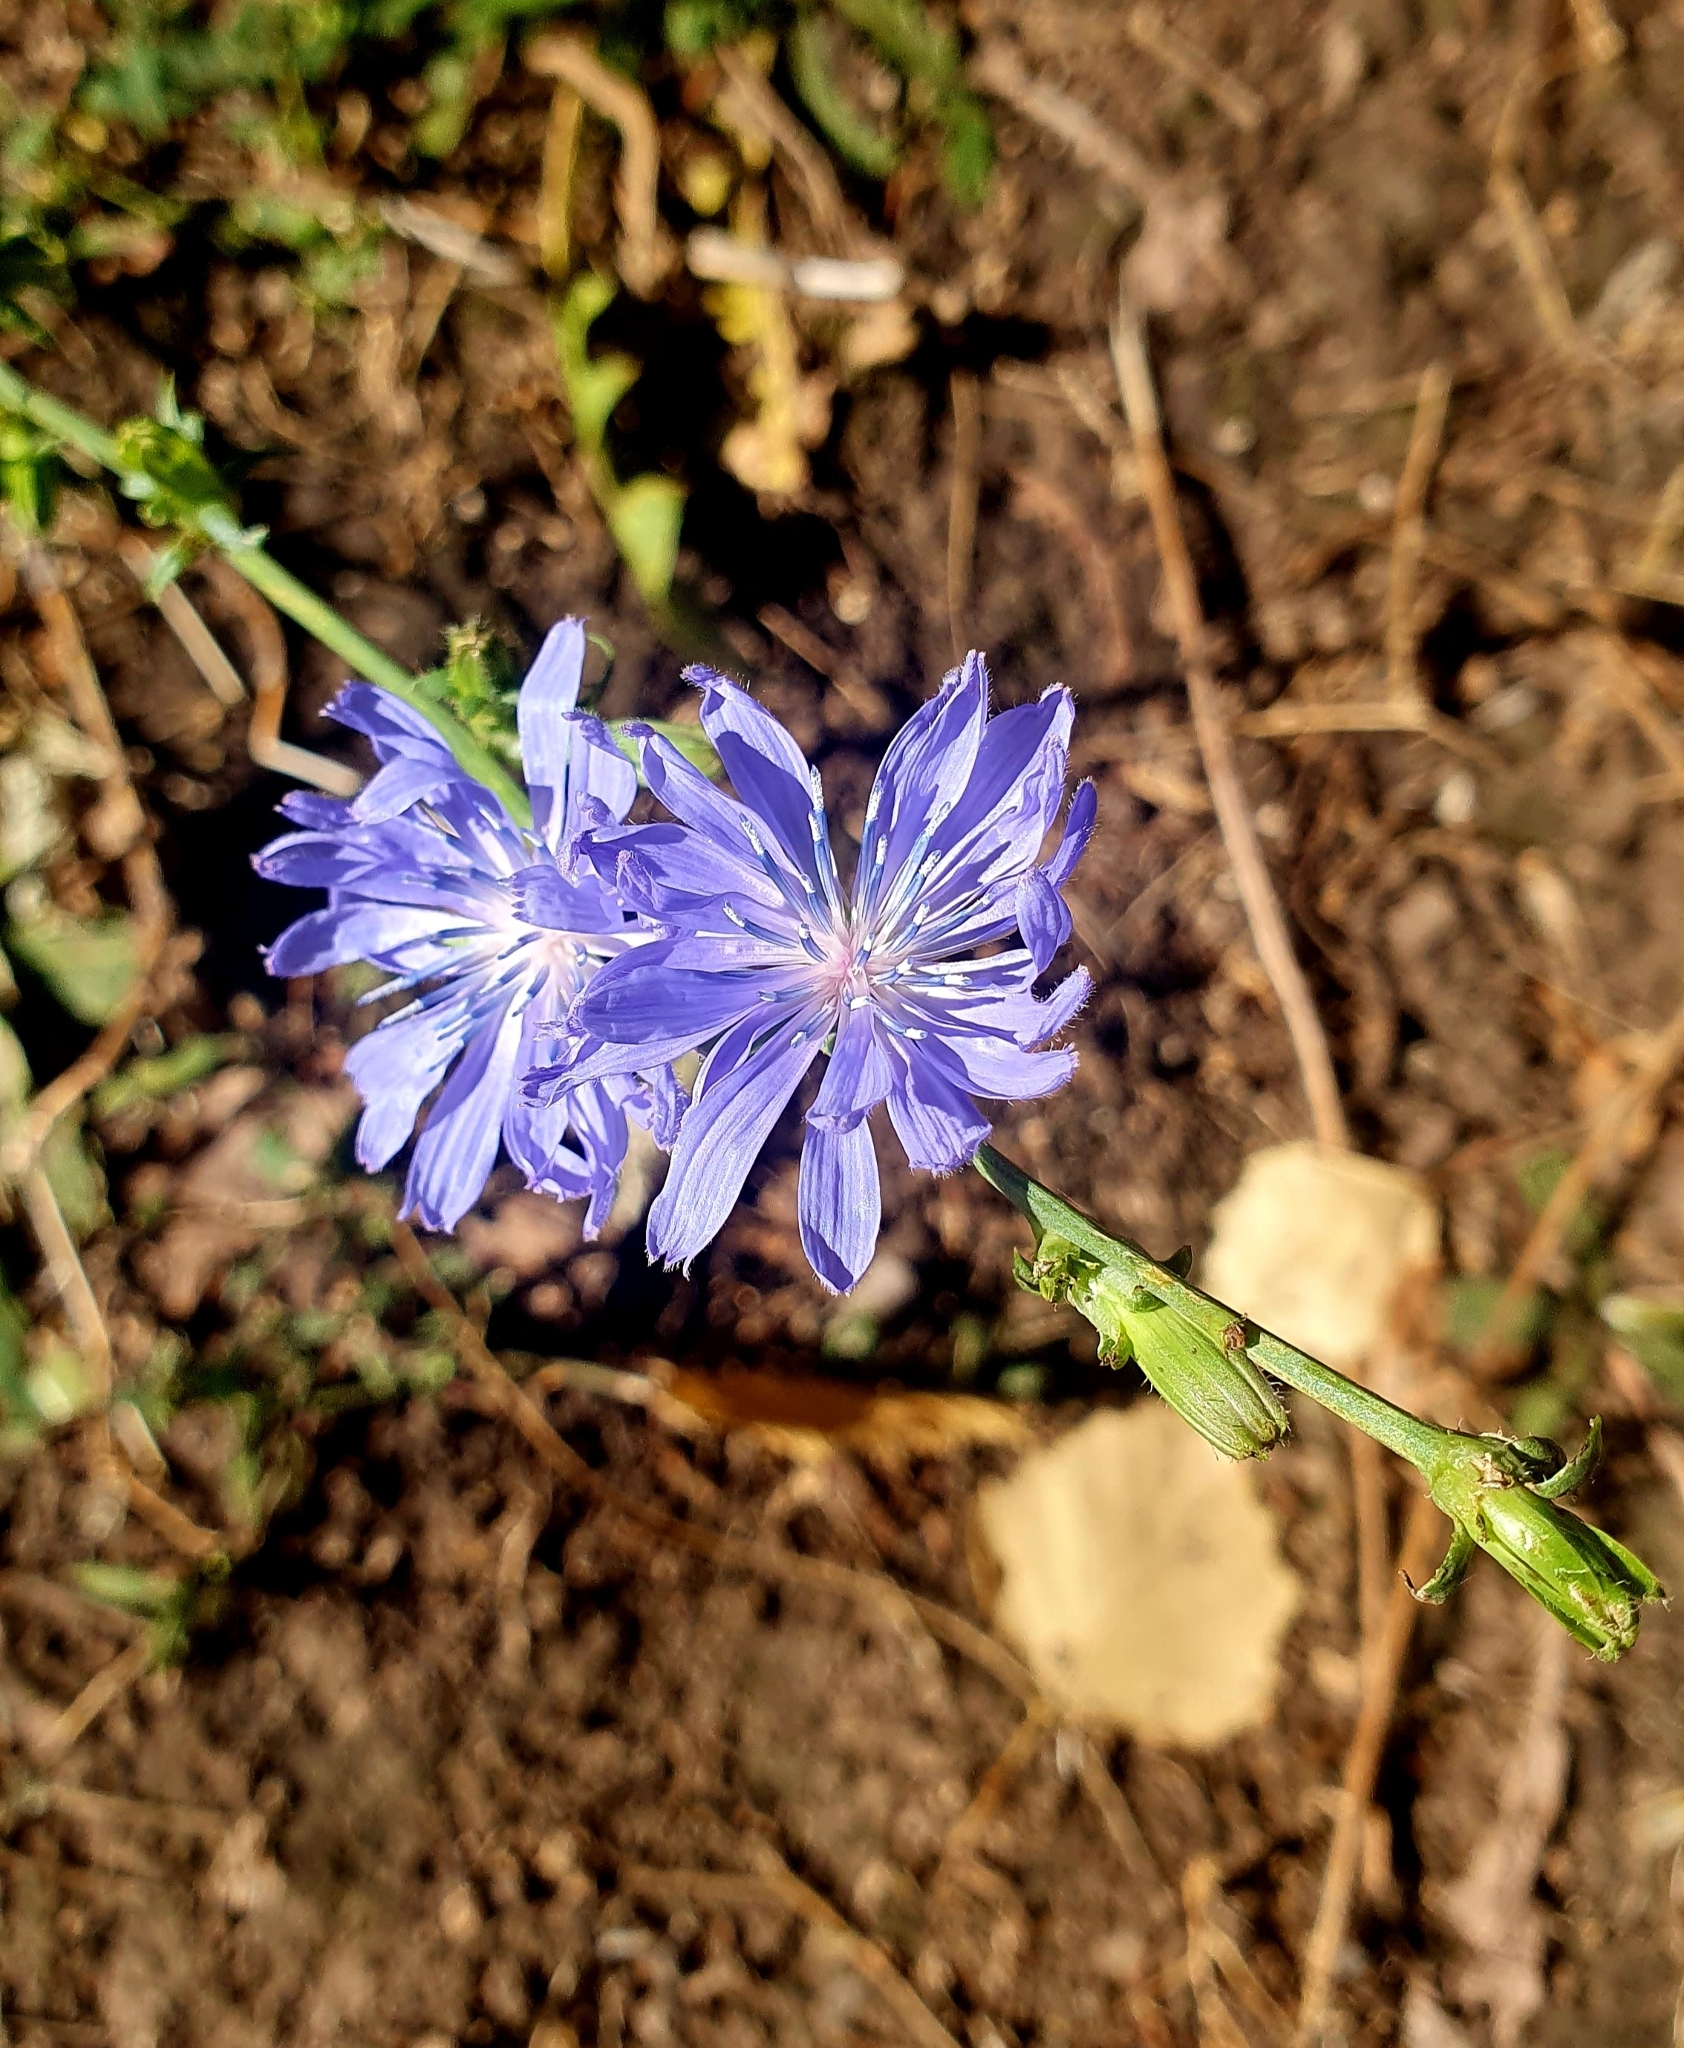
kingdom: Plantae
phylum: Tracheophyta
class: Magnoliopsida
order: Asterales
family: Asteraceae
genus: Cichorium
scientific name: Cichorium intybus
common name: Chicory
